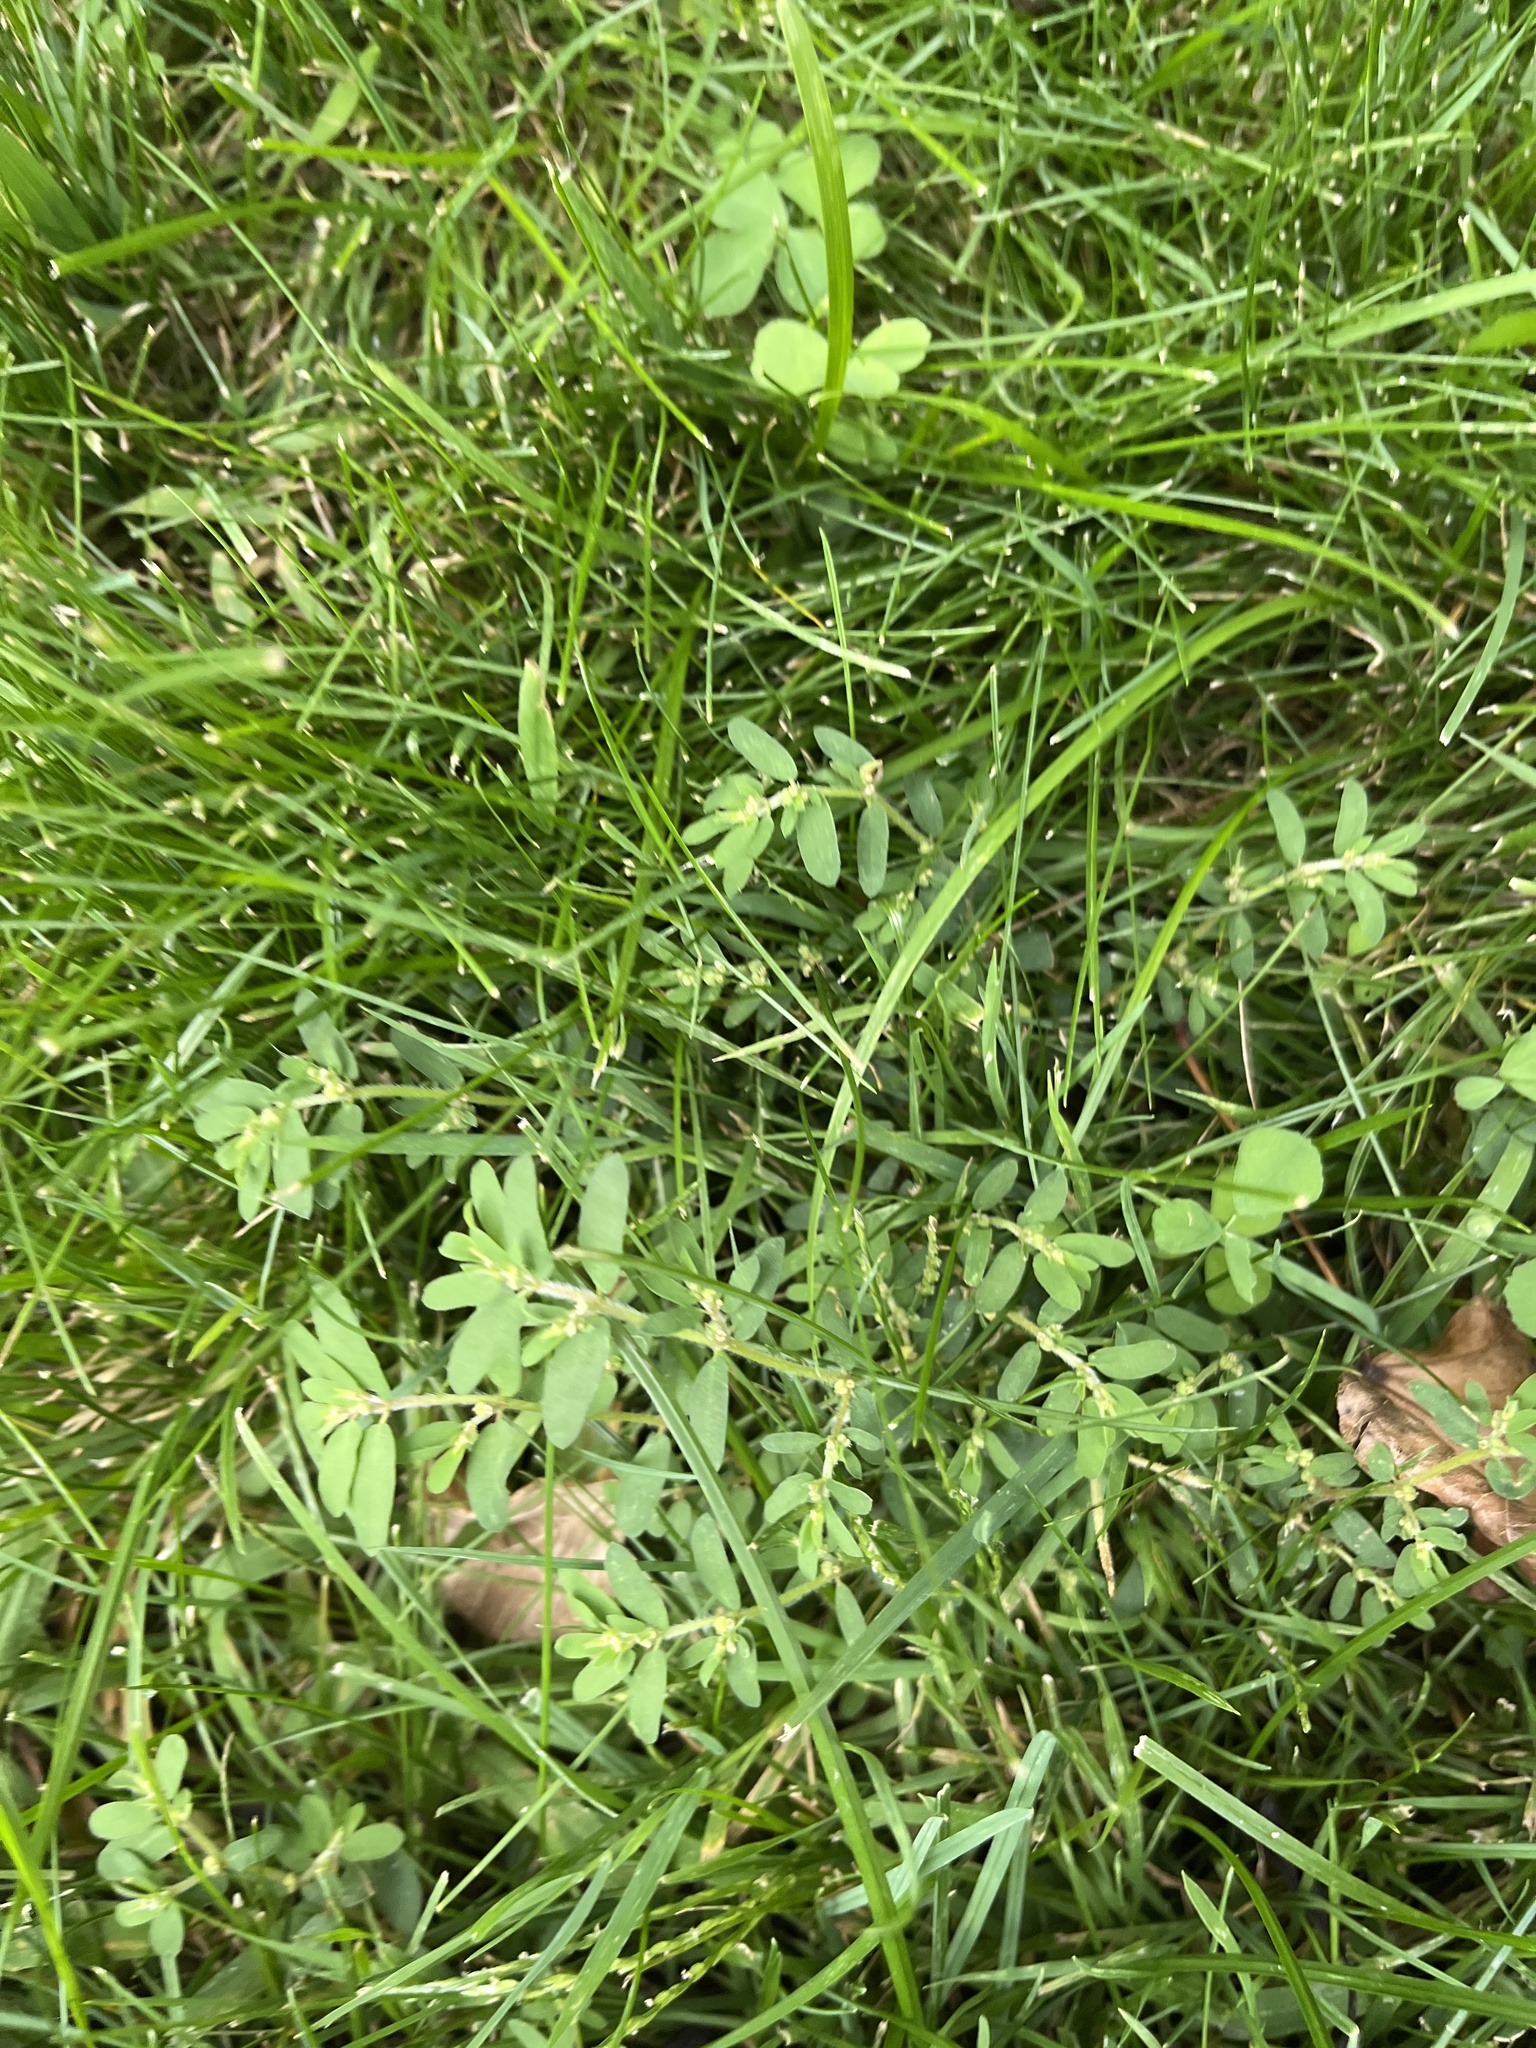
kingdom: Plantae
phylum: Tracheophyta
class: Magnoliopsida
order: Malpighiales
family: Euphorbiaceae
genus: Euphorbia
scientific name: Euphorbia maculata
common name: Spotted spurge
